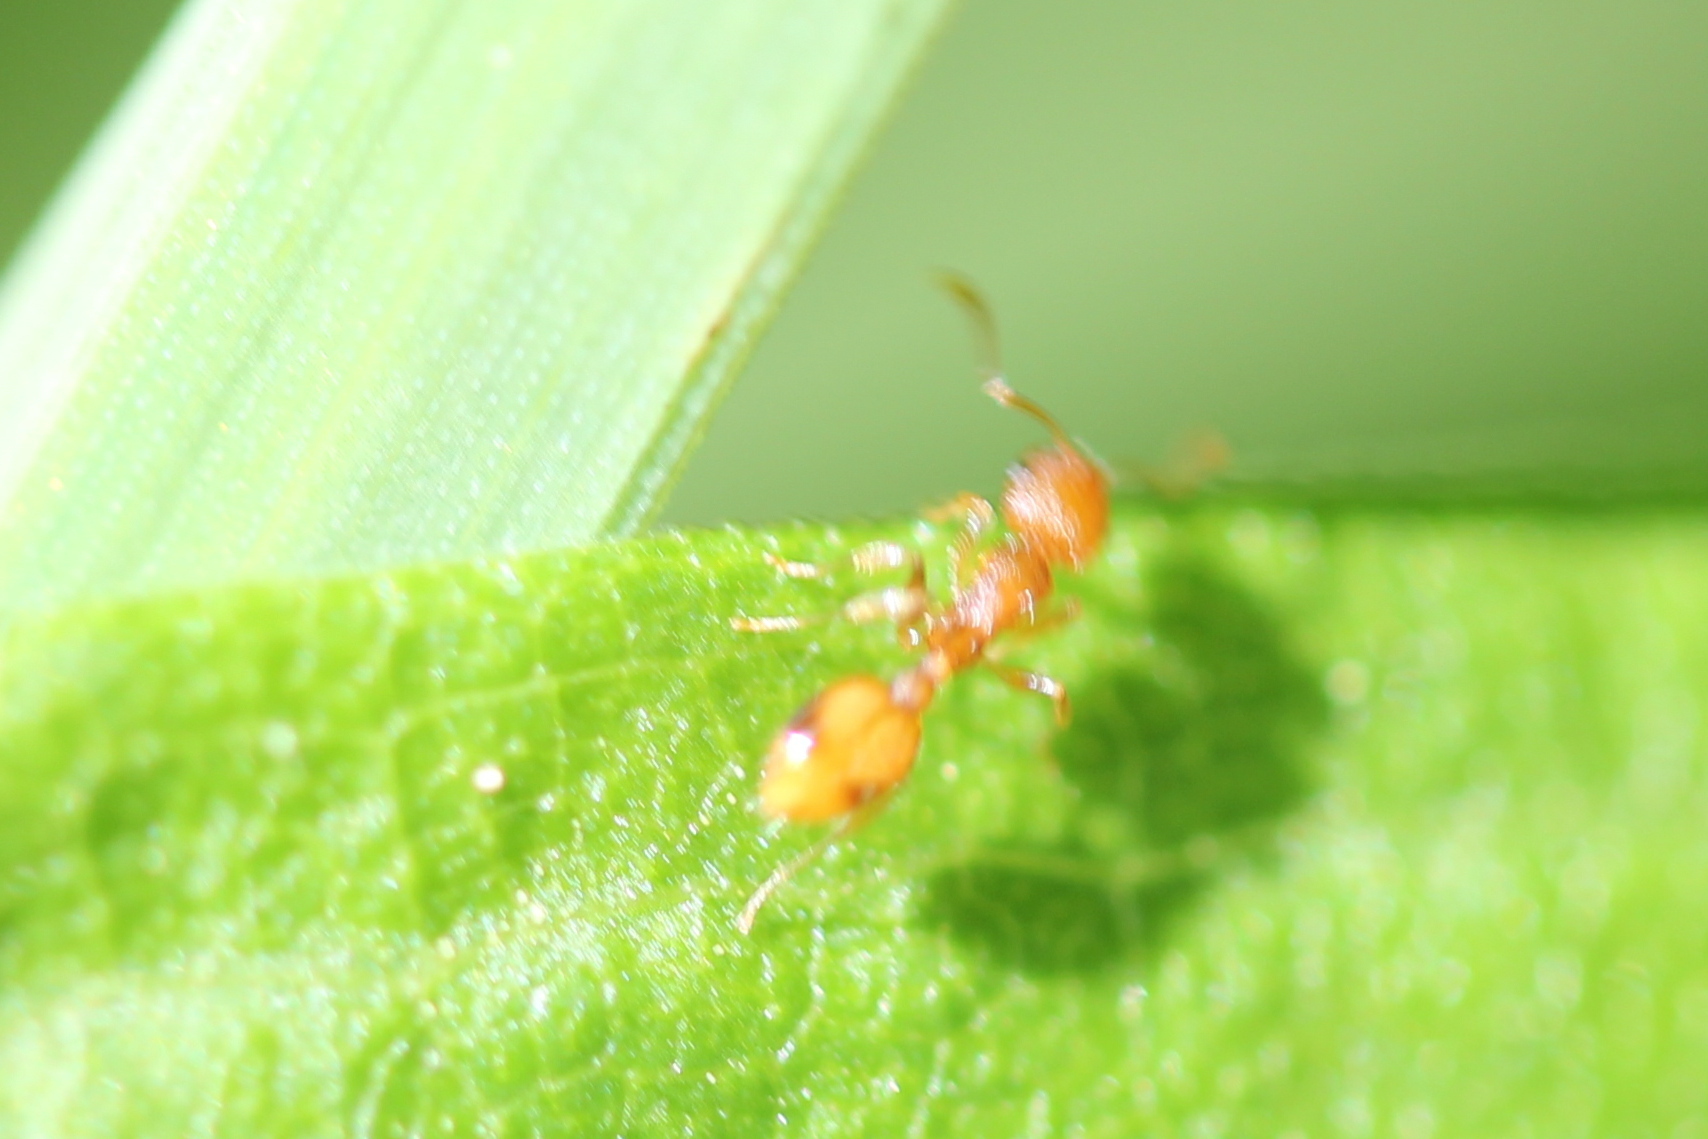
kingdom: Animalia
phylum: Arthropoda
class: Insecta
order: Hymenoptera
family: Formicidae
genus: Temnothorax
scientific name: Temnothorax curvispinosus
